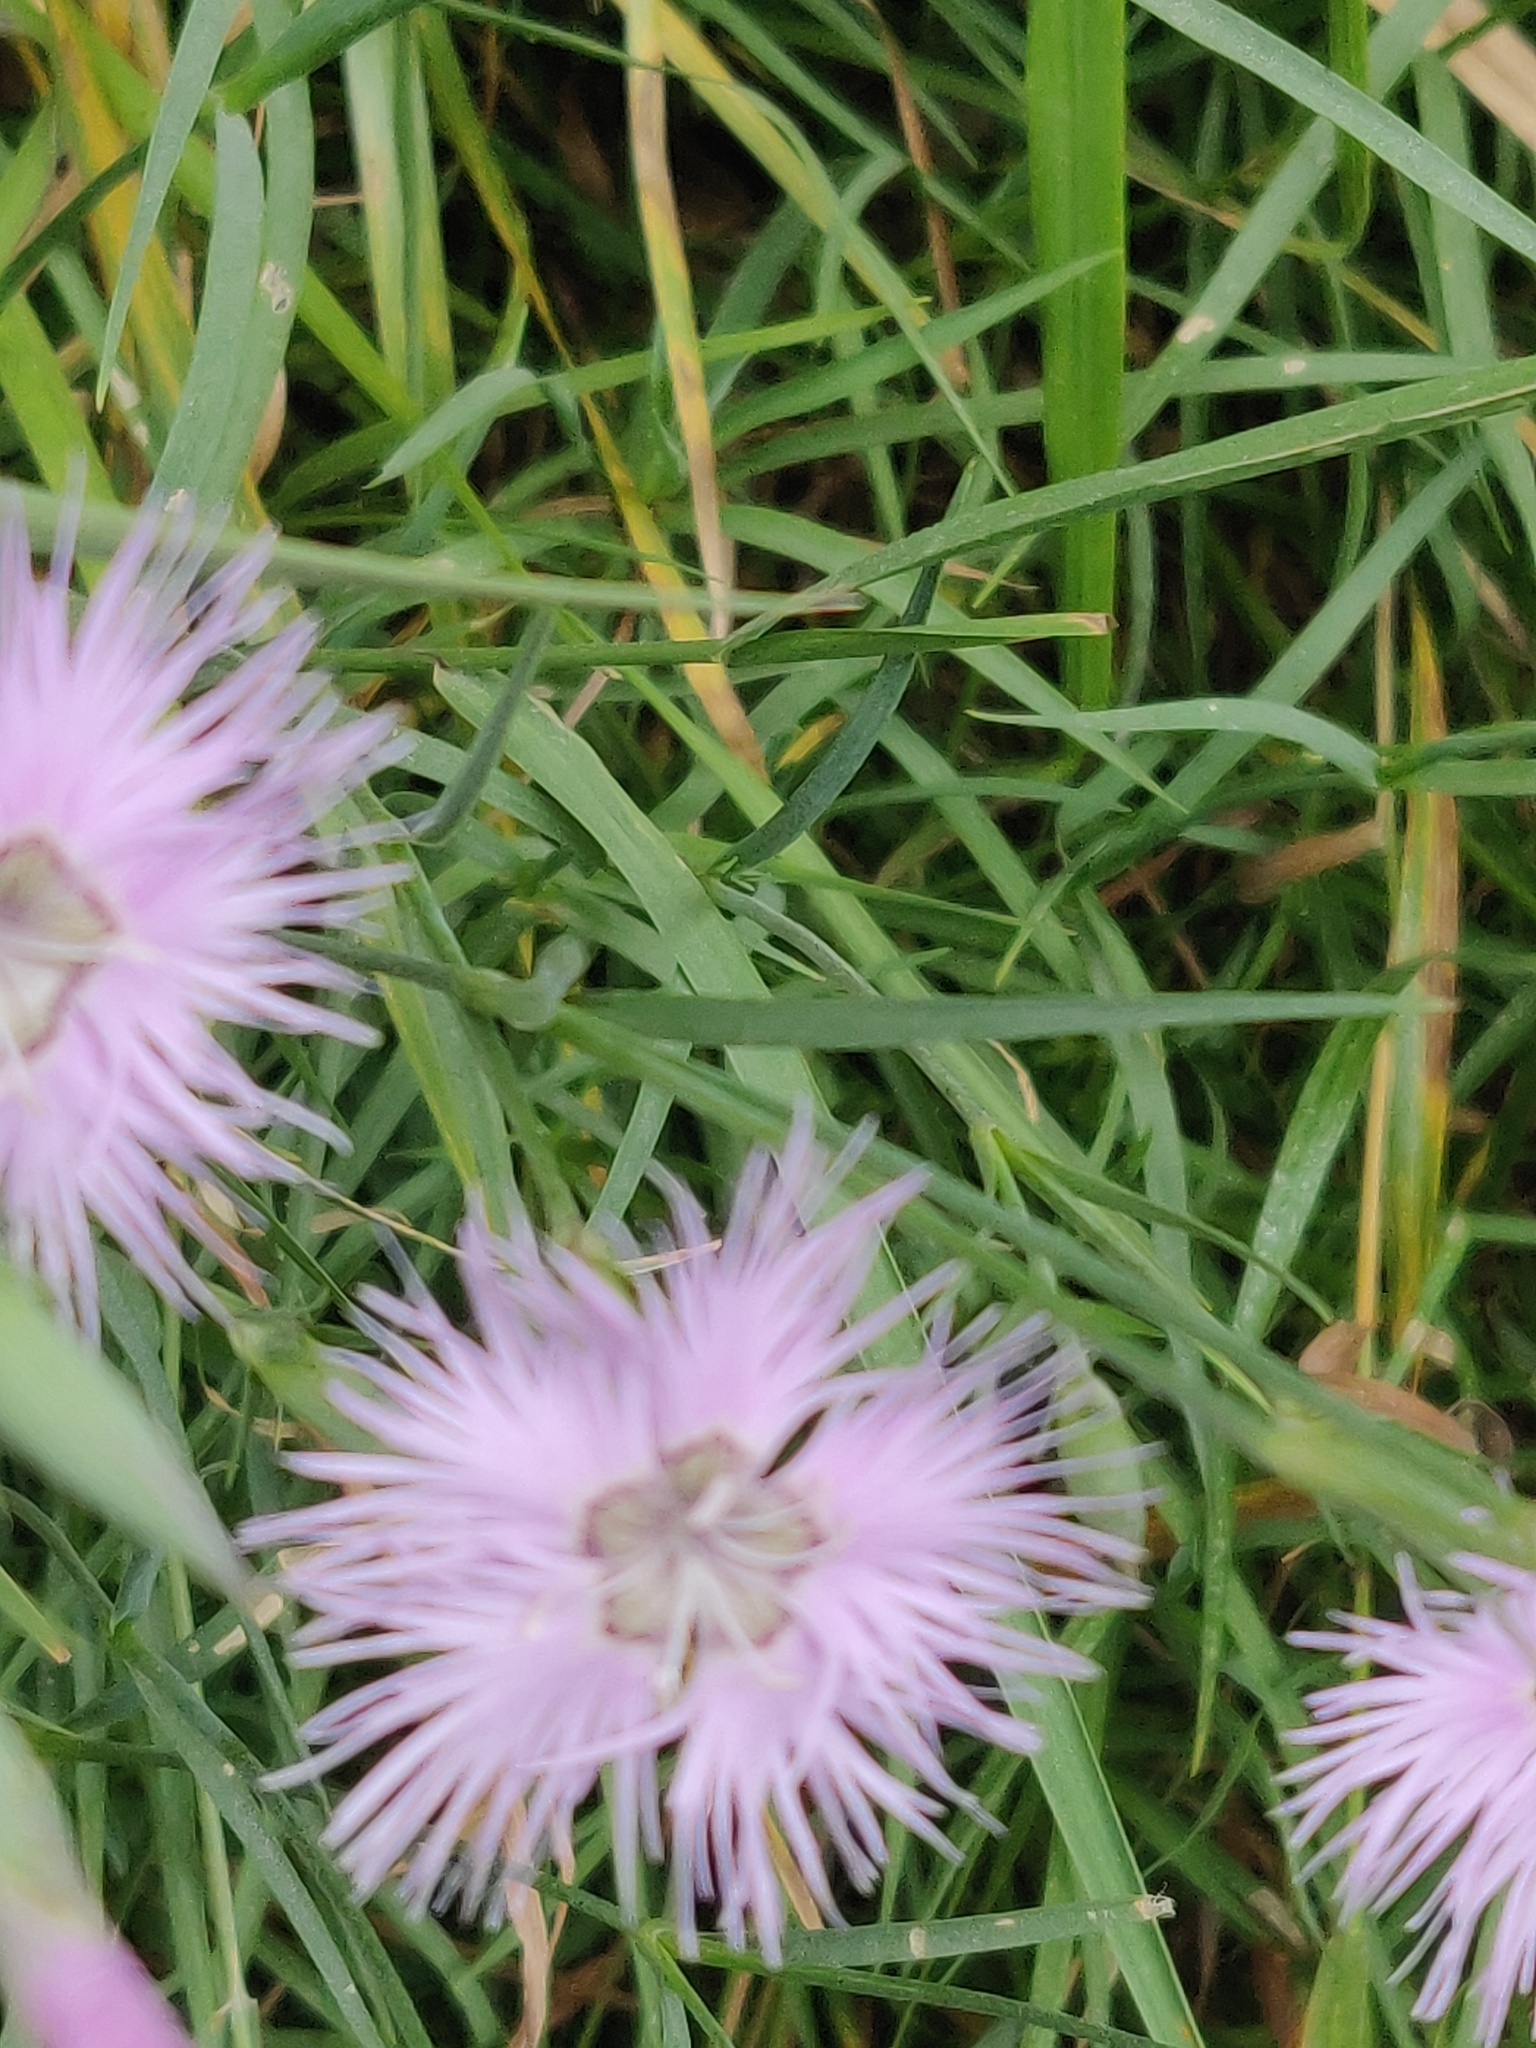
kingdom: Plantae
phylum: Tracheophyta
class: Magnoliopsida
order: Caryophyllales
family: Caryophyllaceae
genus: Dianthus
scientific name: Dianthus hyssopifolius
